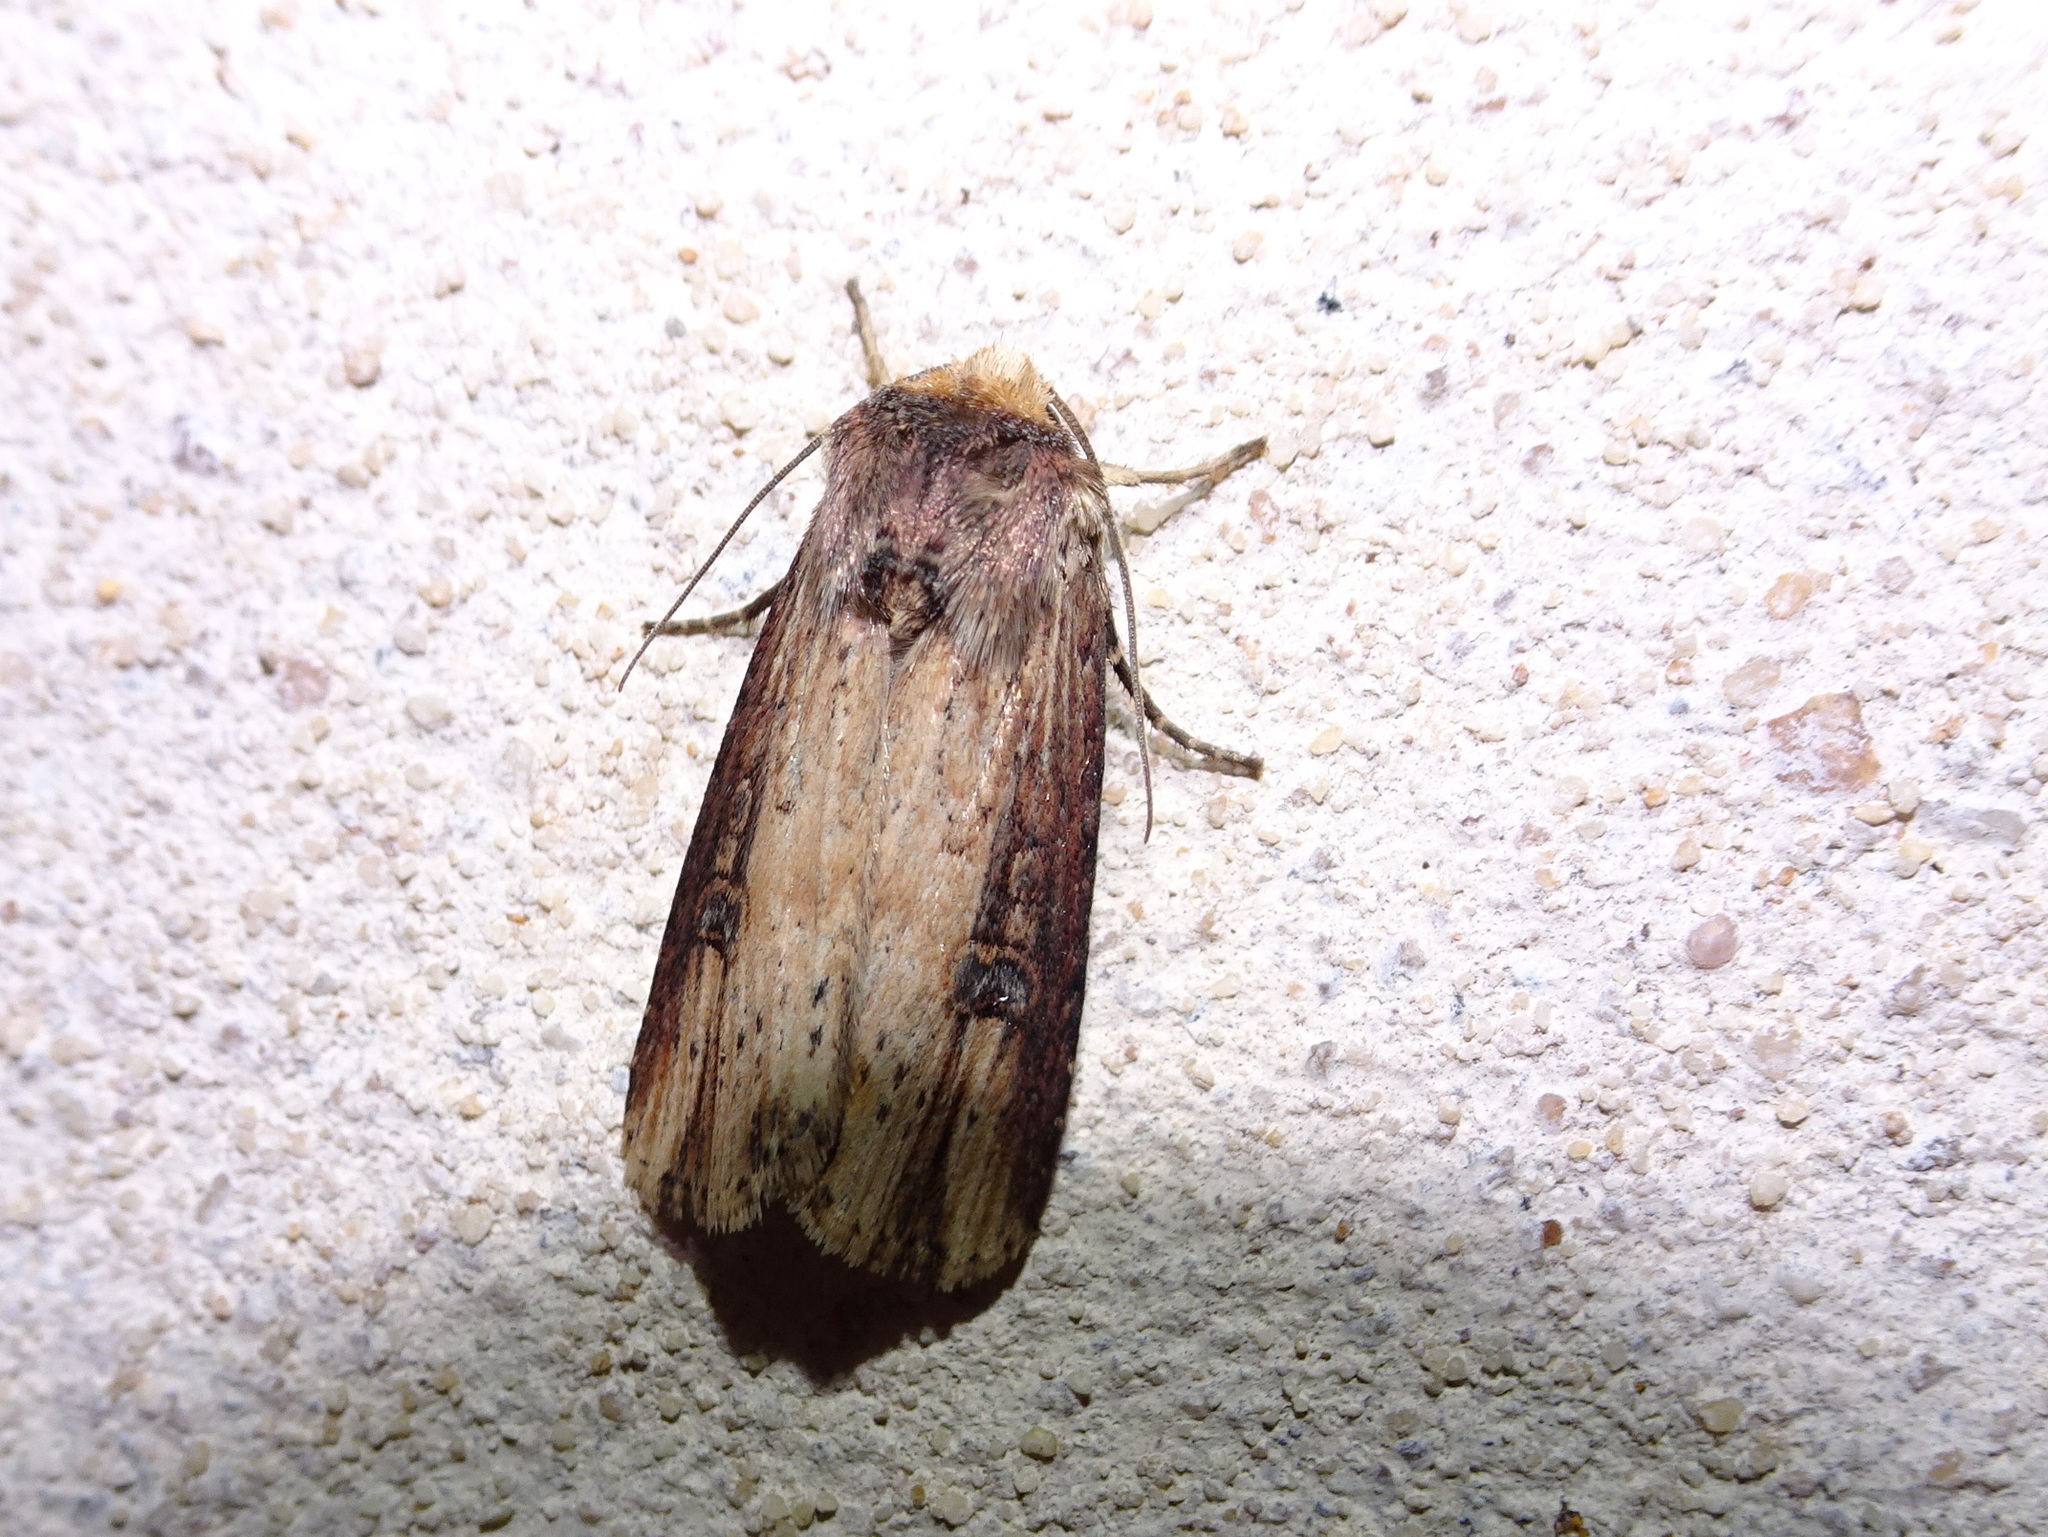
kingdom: Animalia
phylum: Arthropoda
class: Insecta
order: Lepidoptera
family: Noctuidae
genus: Axylia
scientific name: Axylia putris
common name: Flame
